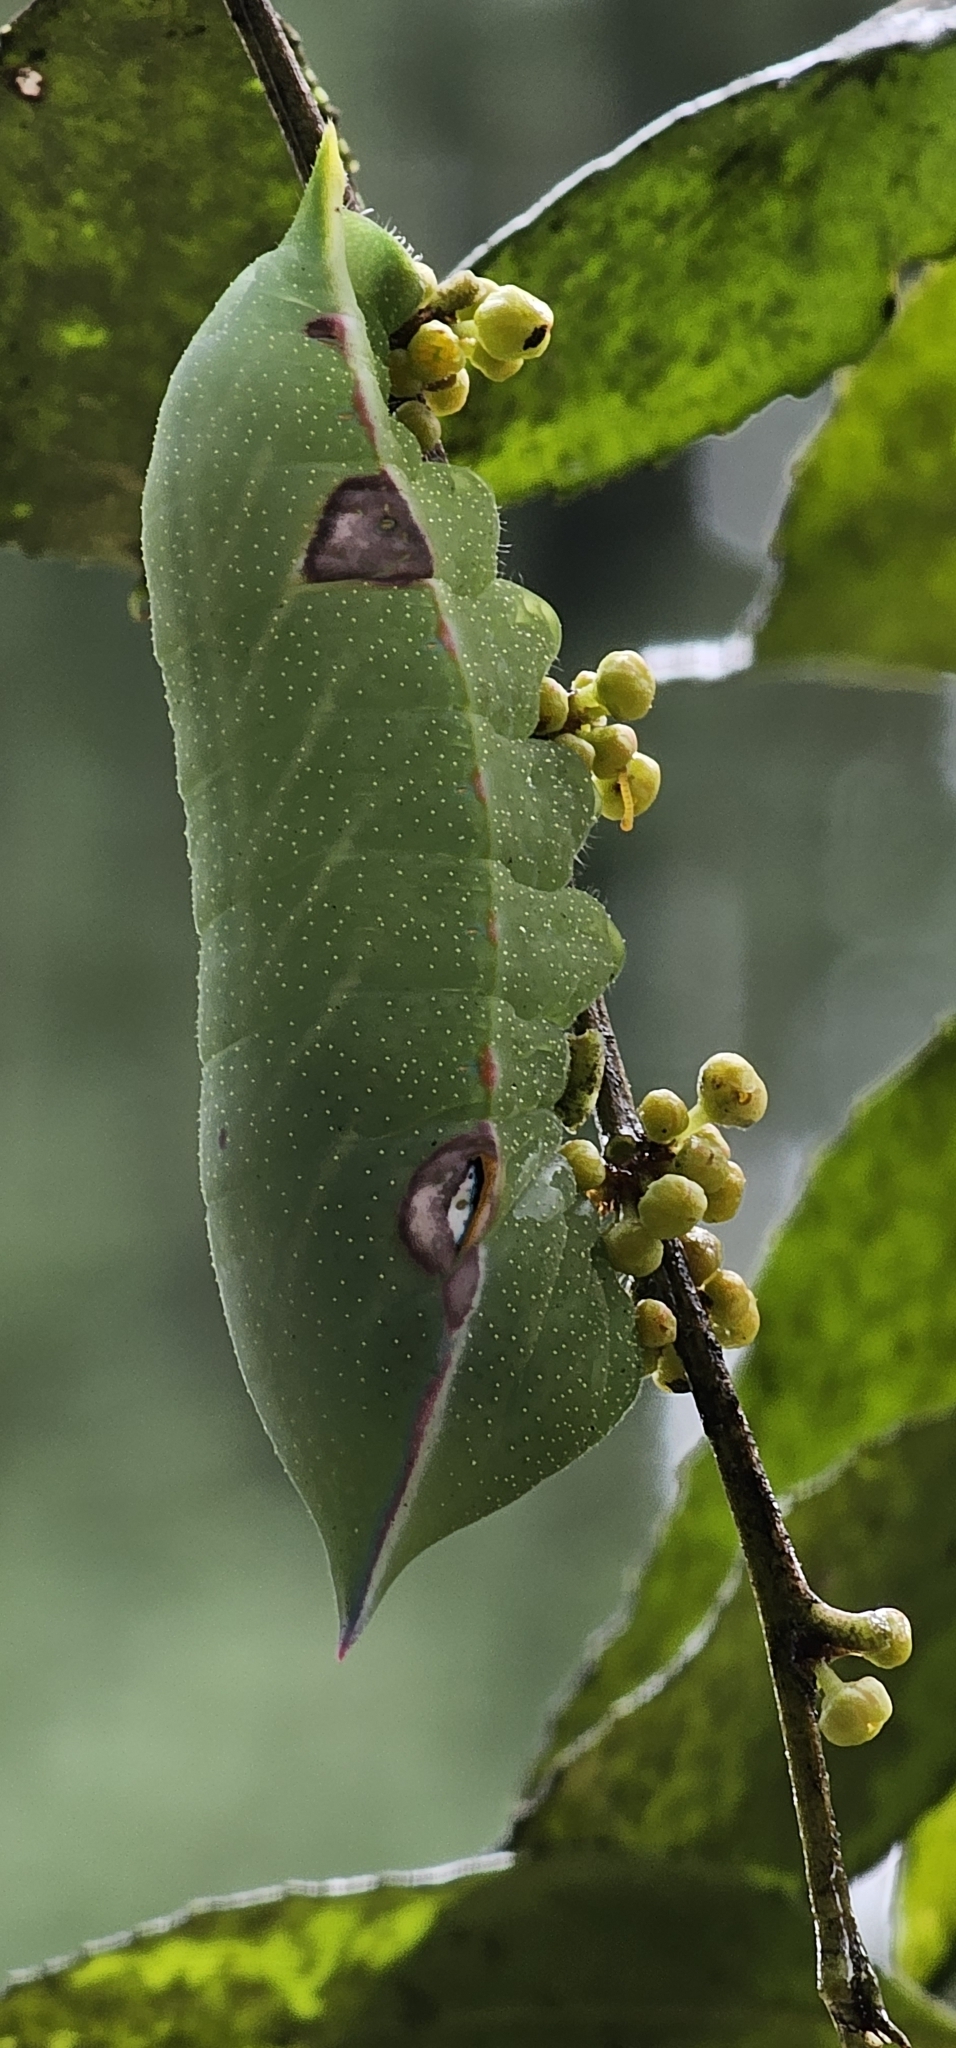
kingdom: Animalia
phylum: Arthropoda
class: Insecta
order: Lepidoptera
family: Saturniidae
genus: Cercophana
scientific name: Cercophana venusta
